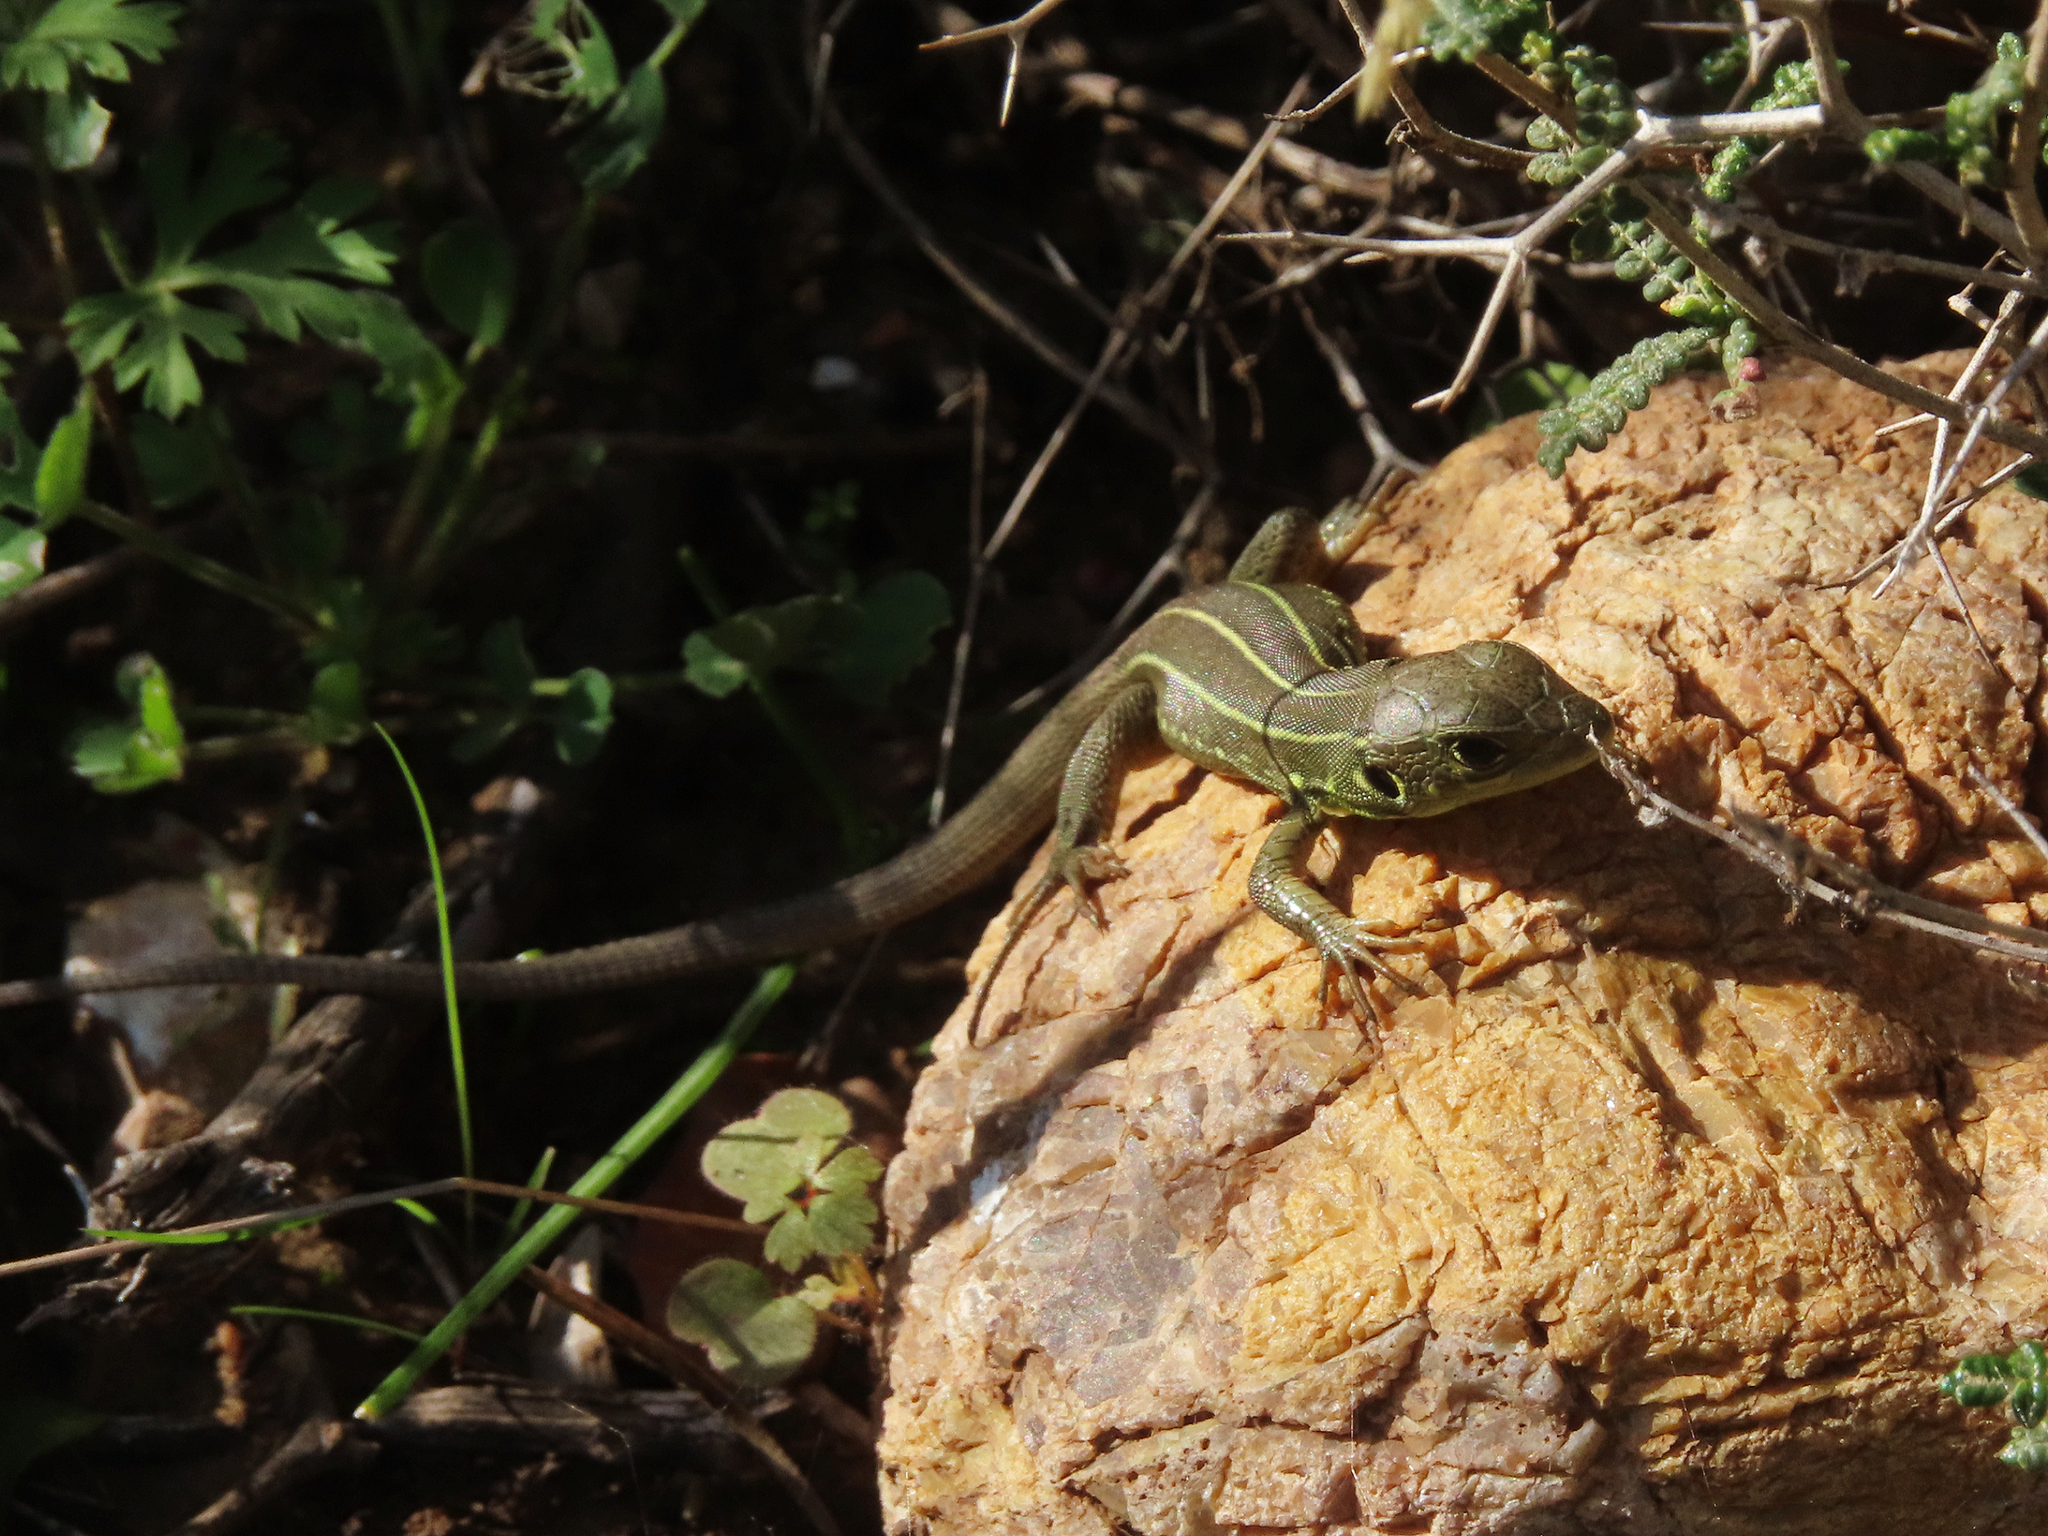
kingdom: Animalia
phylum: Chordata
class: Squamata
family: Lacertidae
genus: Lacerta
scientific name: Lacerta trilineata
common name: Balkan green lizard
